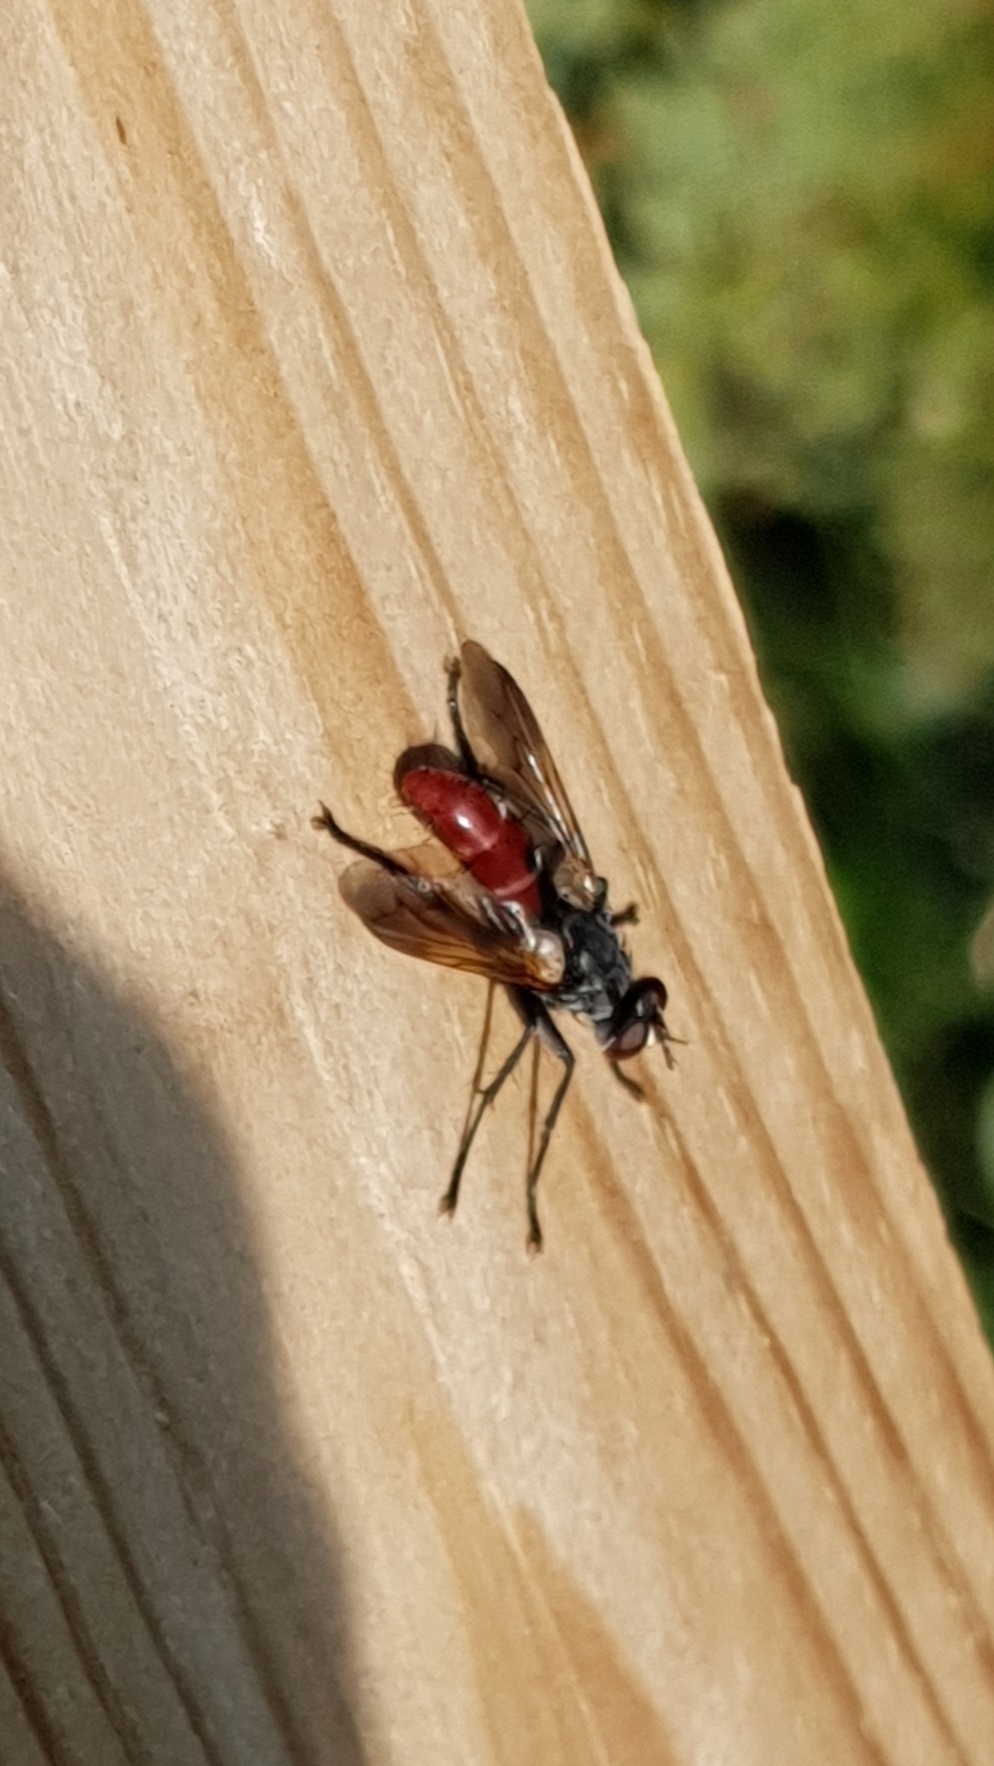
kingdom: Animalia
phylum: Arthropoda
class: Insecta
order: Diptera
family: Tachinidae
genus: Cylindromyia
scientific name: Cylindromyia bicolor
